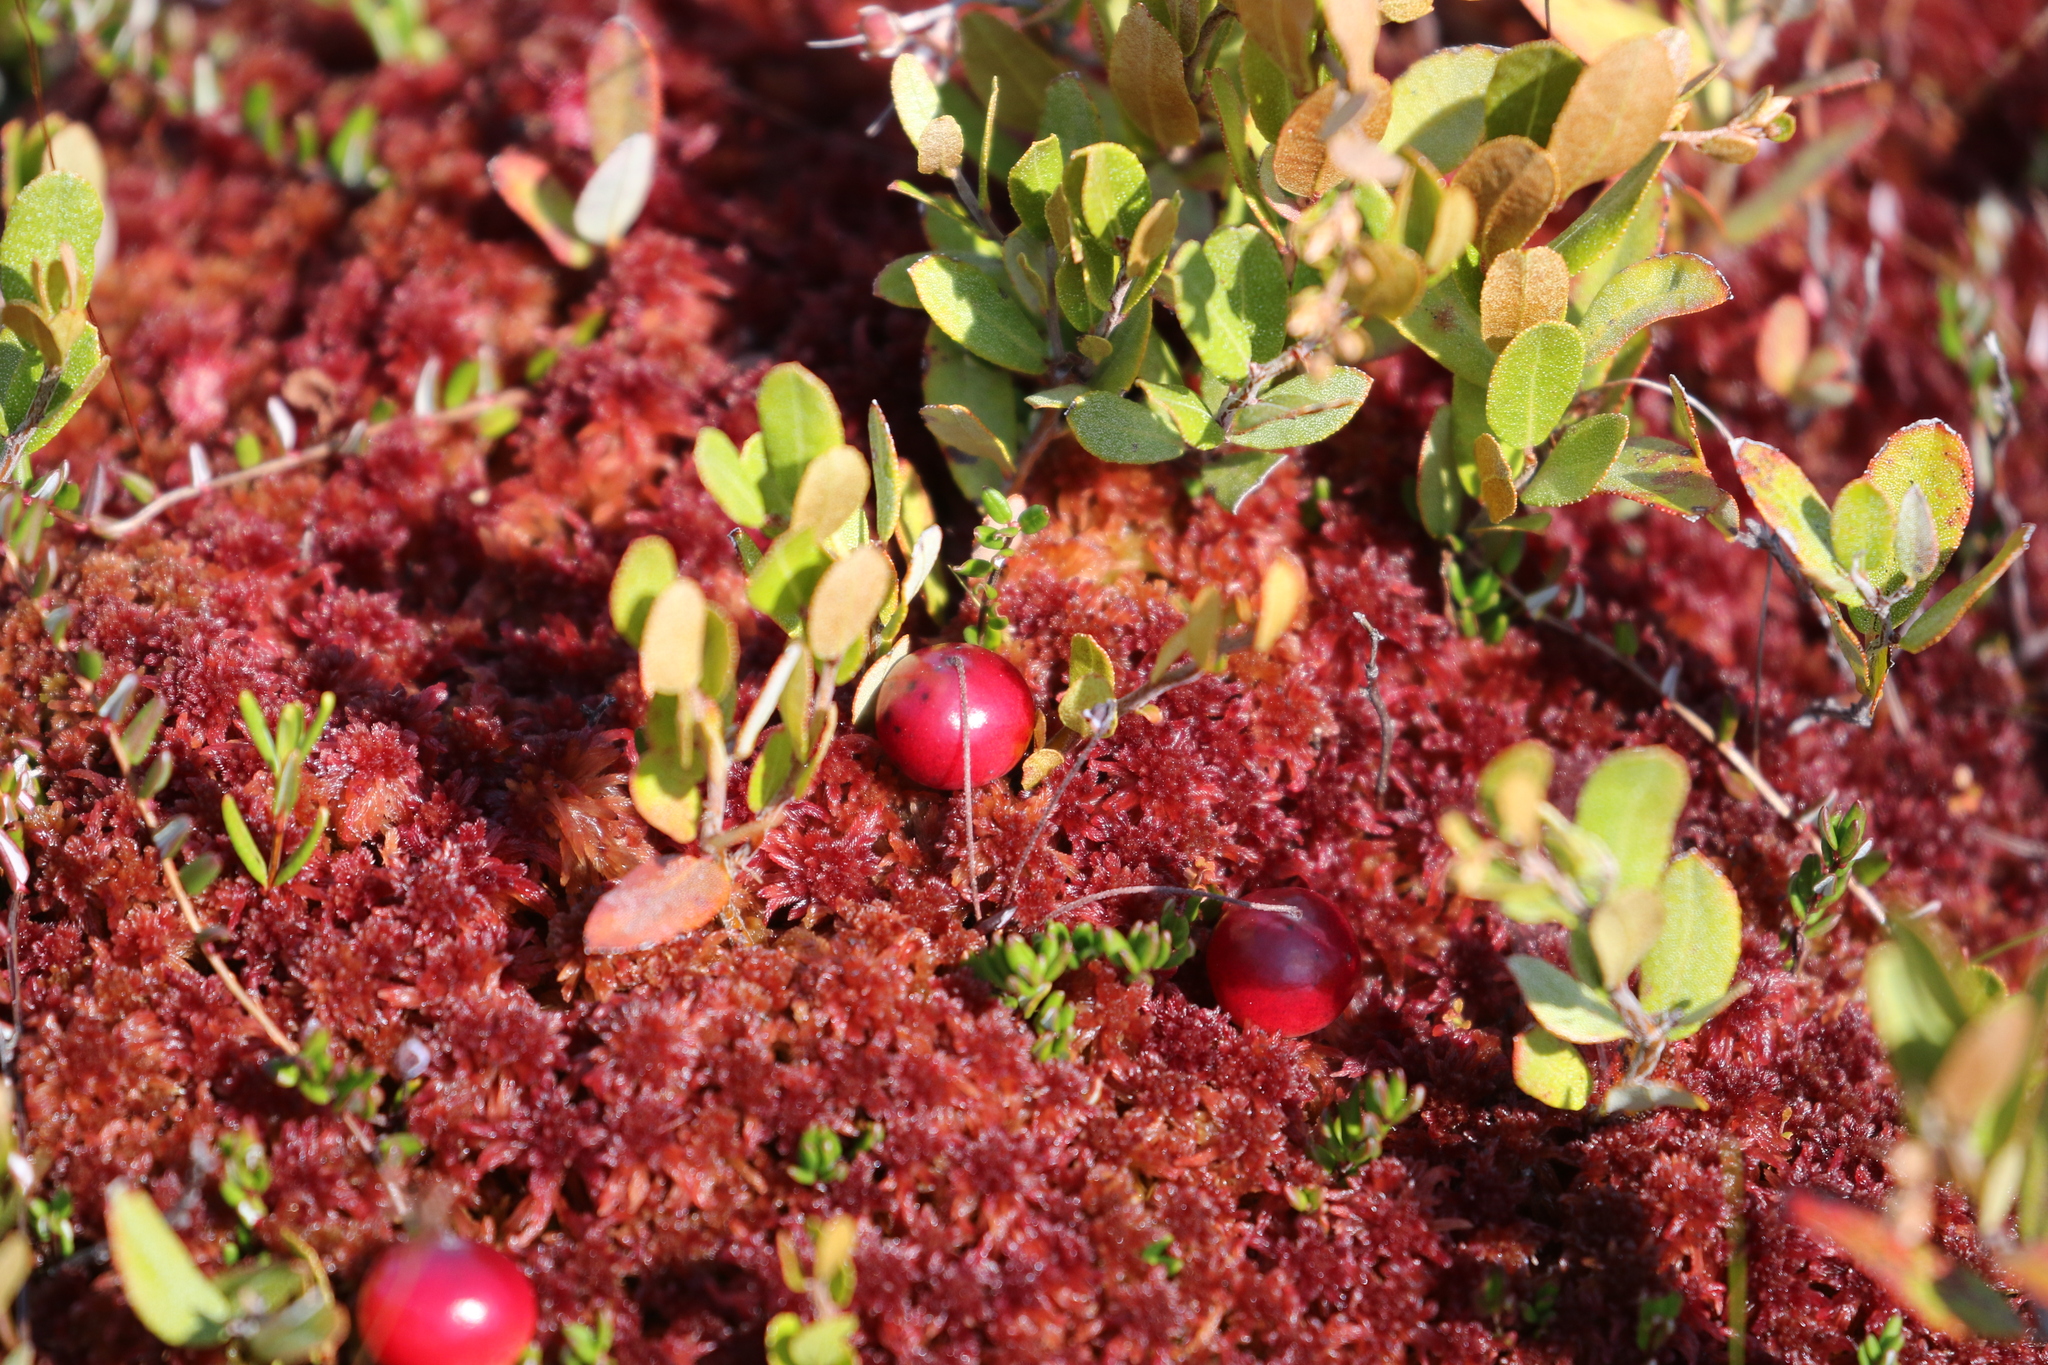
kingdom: Plantae
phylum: Tracheophyta
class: Magnoliopsida
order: Ericales
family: Ericaceae
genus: Vaccinium
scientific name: Vaccinium oxycoccos
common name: Cranberry
